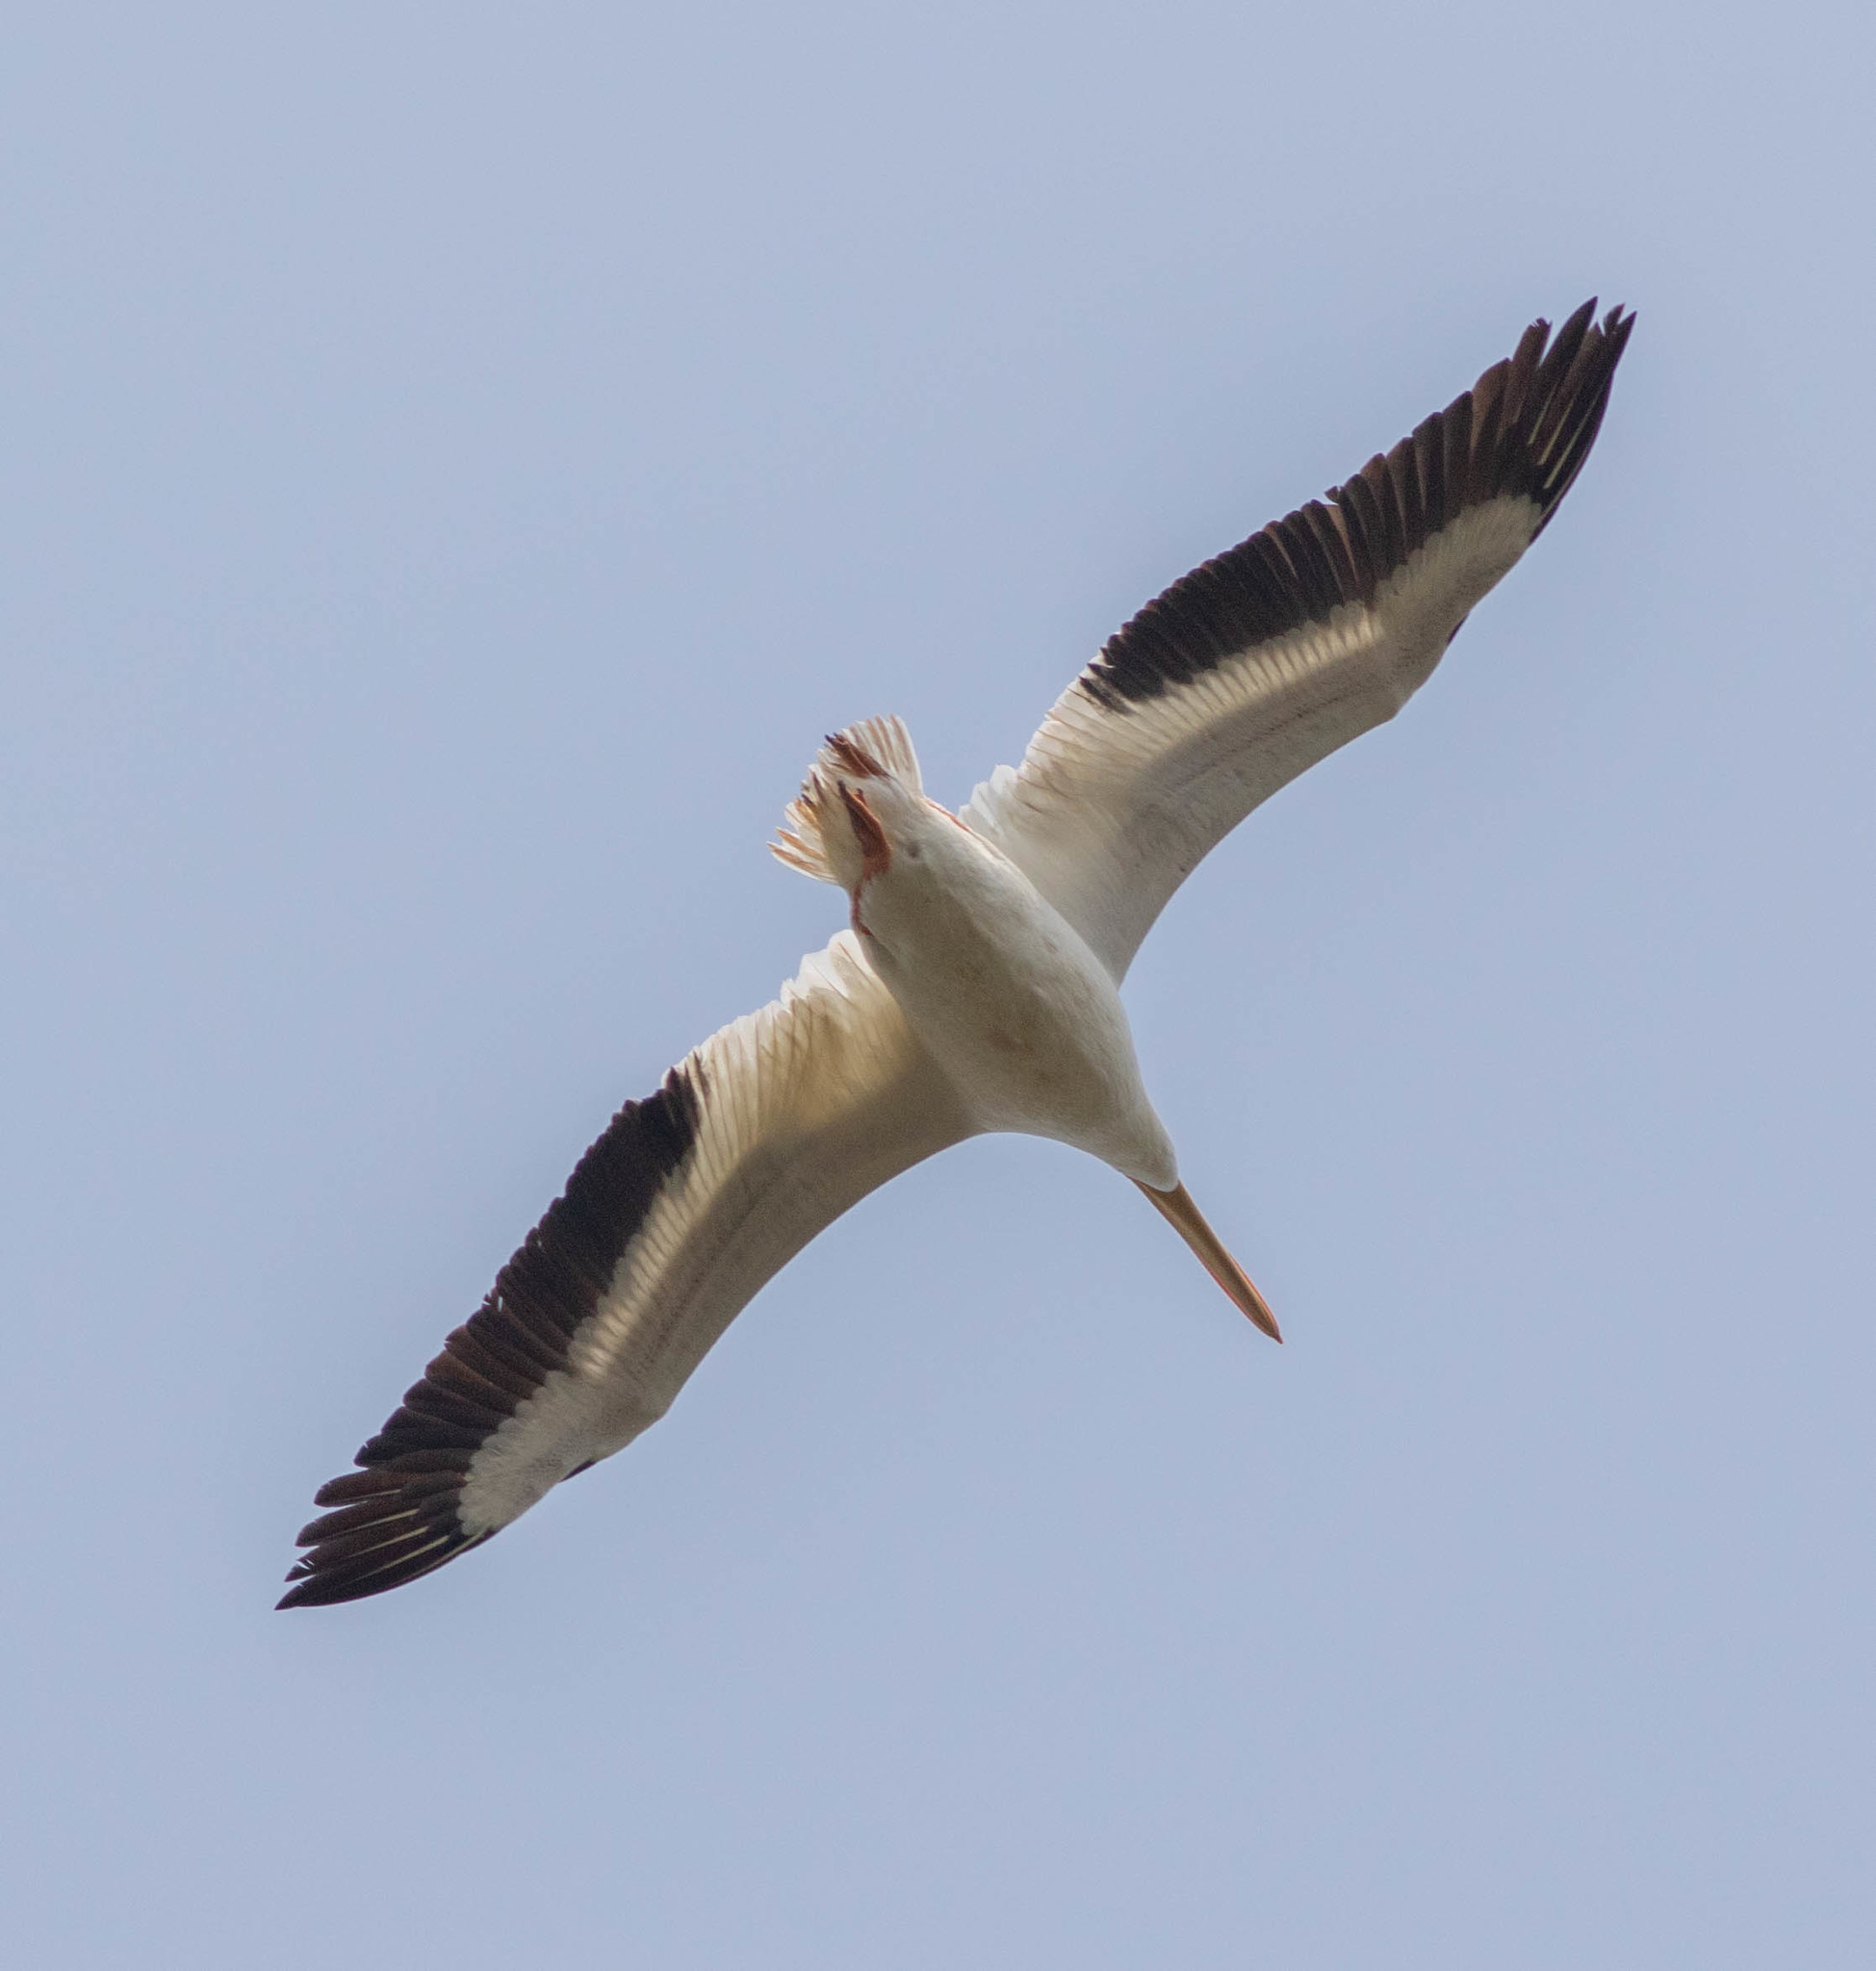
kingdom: Animalia
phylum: Chordata
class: Aves
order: Pelecaniformes
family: Pelecanidae
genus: Pelecanus
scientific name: Pelecanus erythrorhynchos
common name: American white pelican
